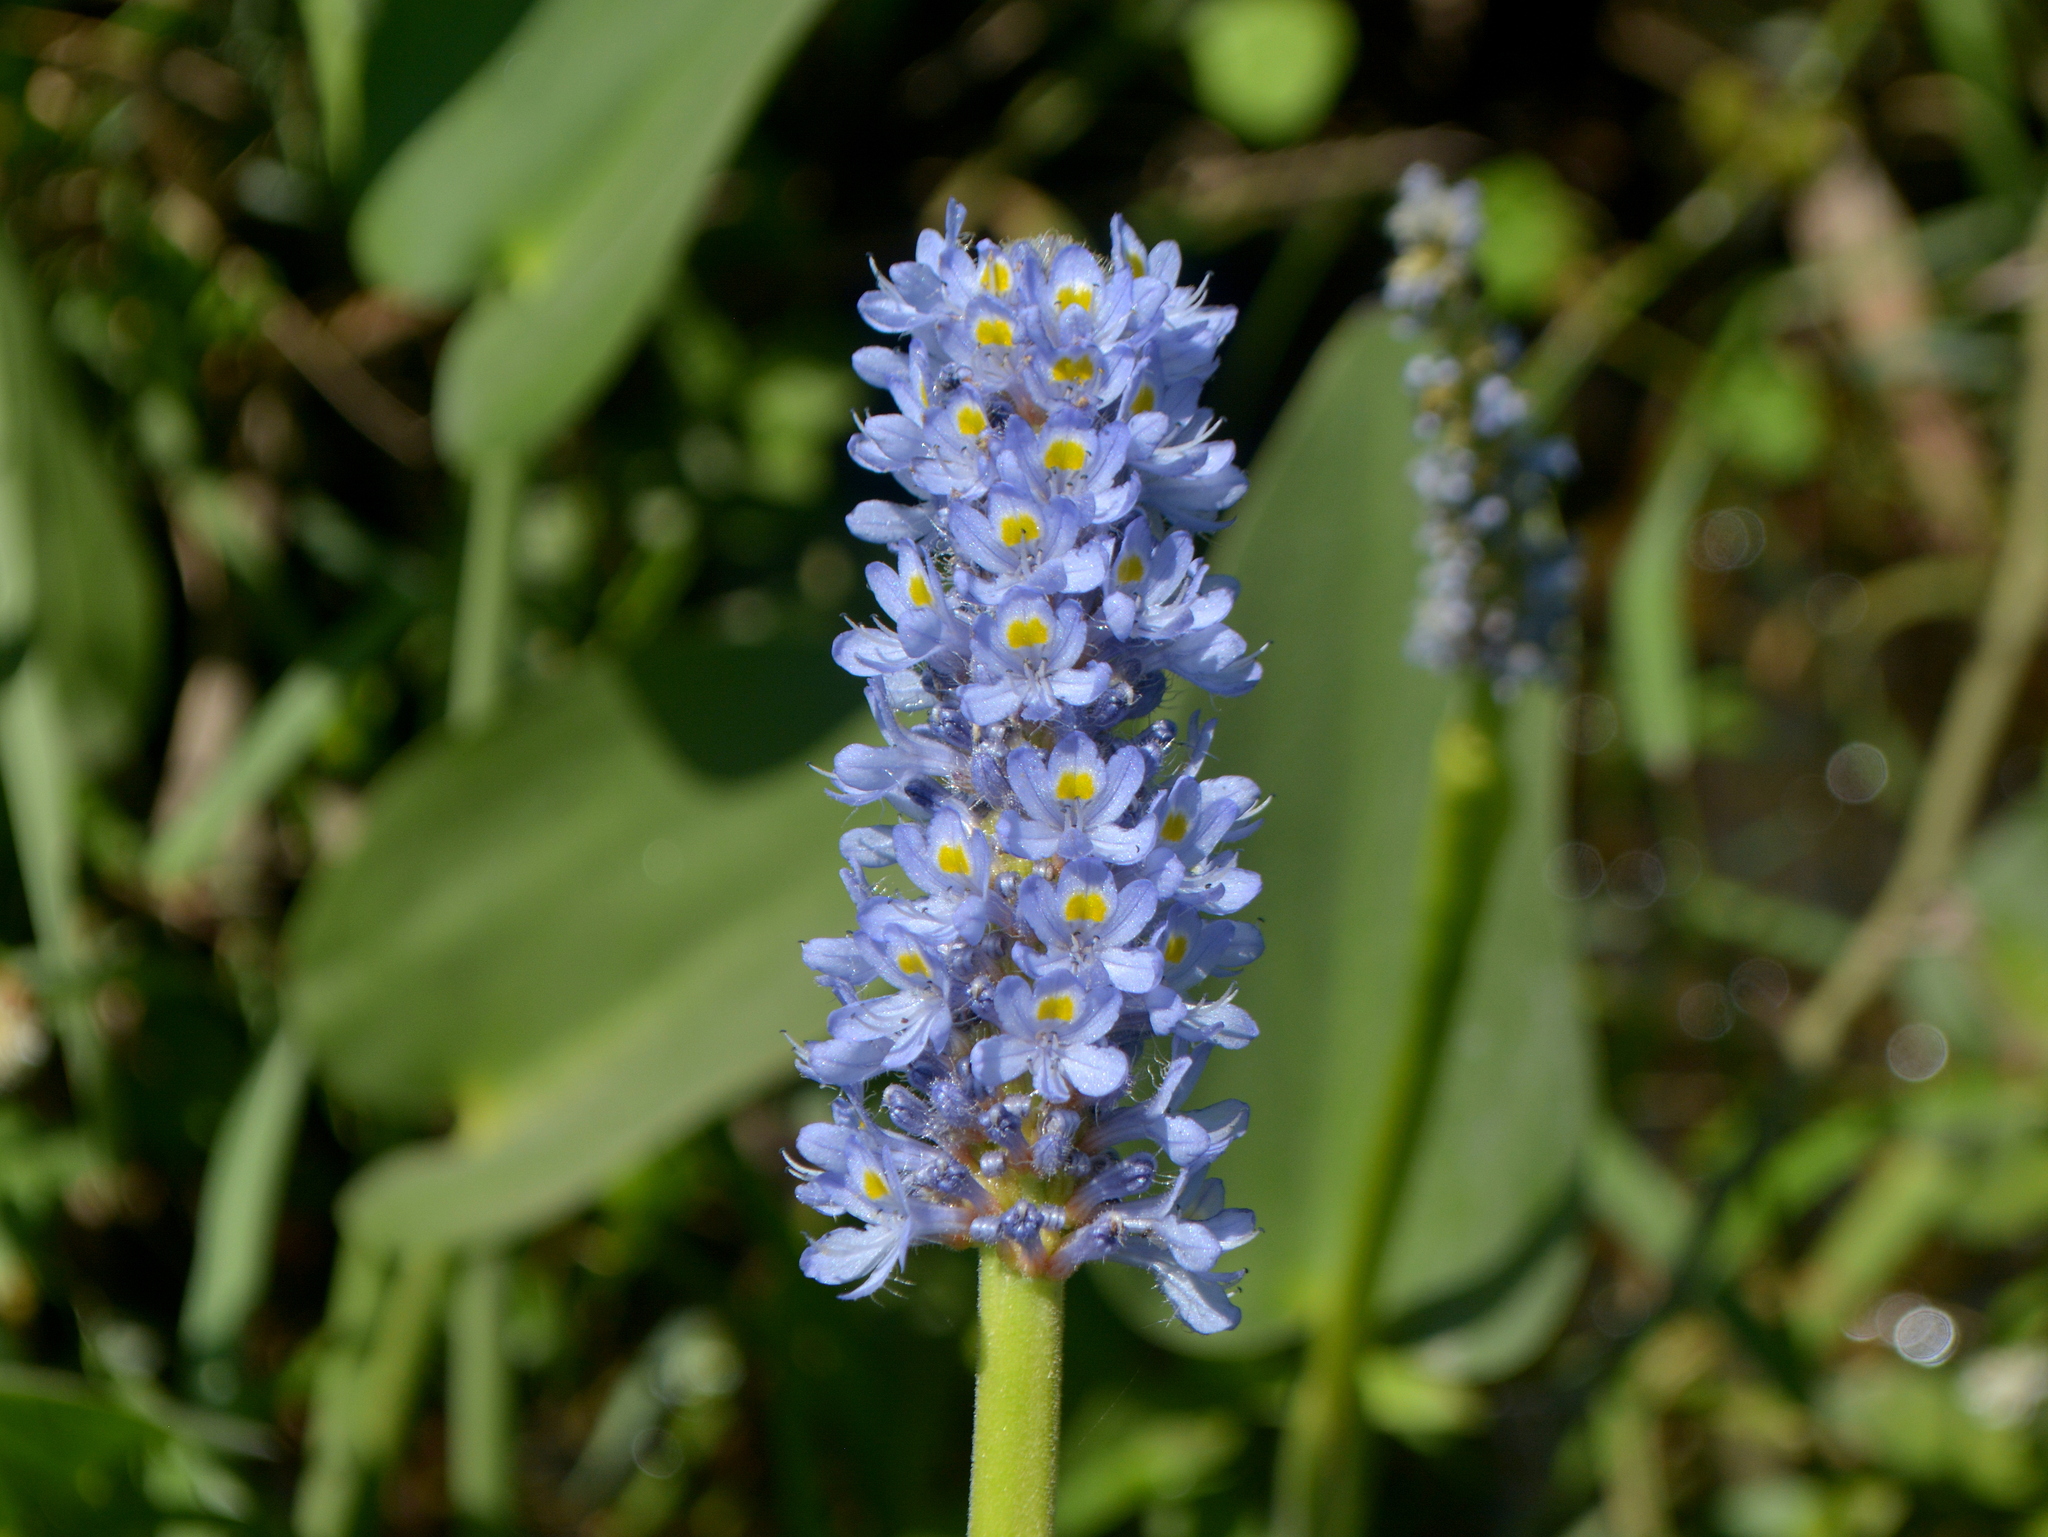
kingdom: Plantae
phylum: Tracheophyta
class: Liliopsida
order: Commelinales
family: Pontederiaceae
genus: Pontederia
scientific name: Pontederia cordata
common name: Pickerelweed
